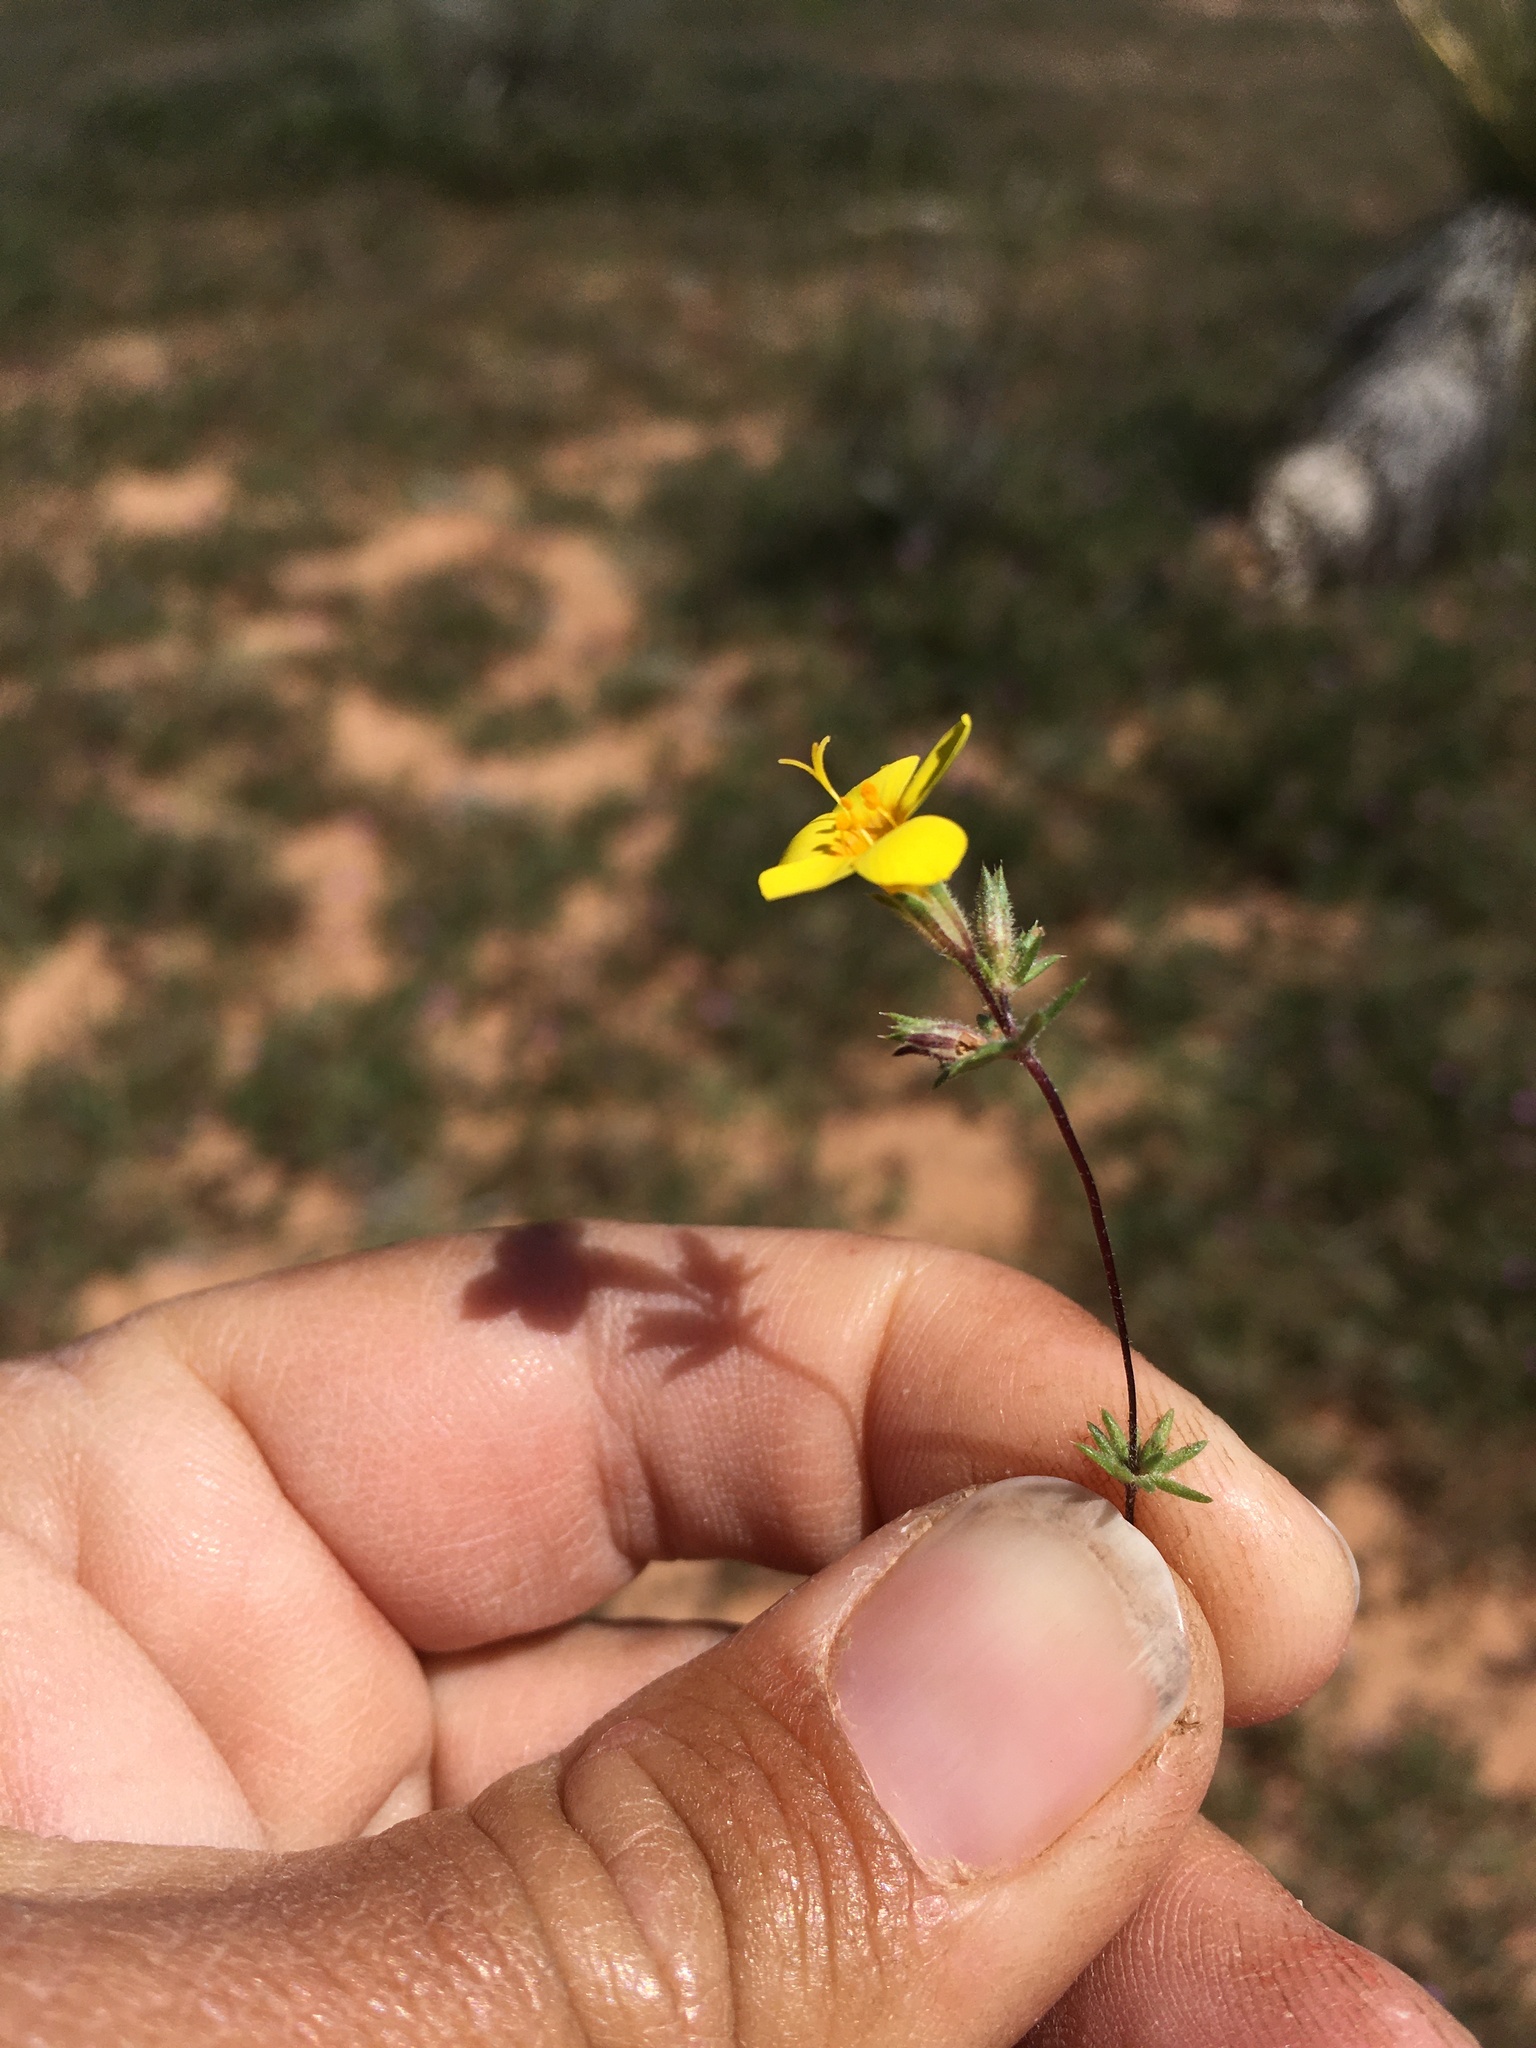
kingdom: Plantae
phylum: Tracheophyta
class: Magnoliopsida
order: Ericales
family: Polemoniaceae
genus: Leptosiphon
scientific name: Leptosiphon chrysanthus
